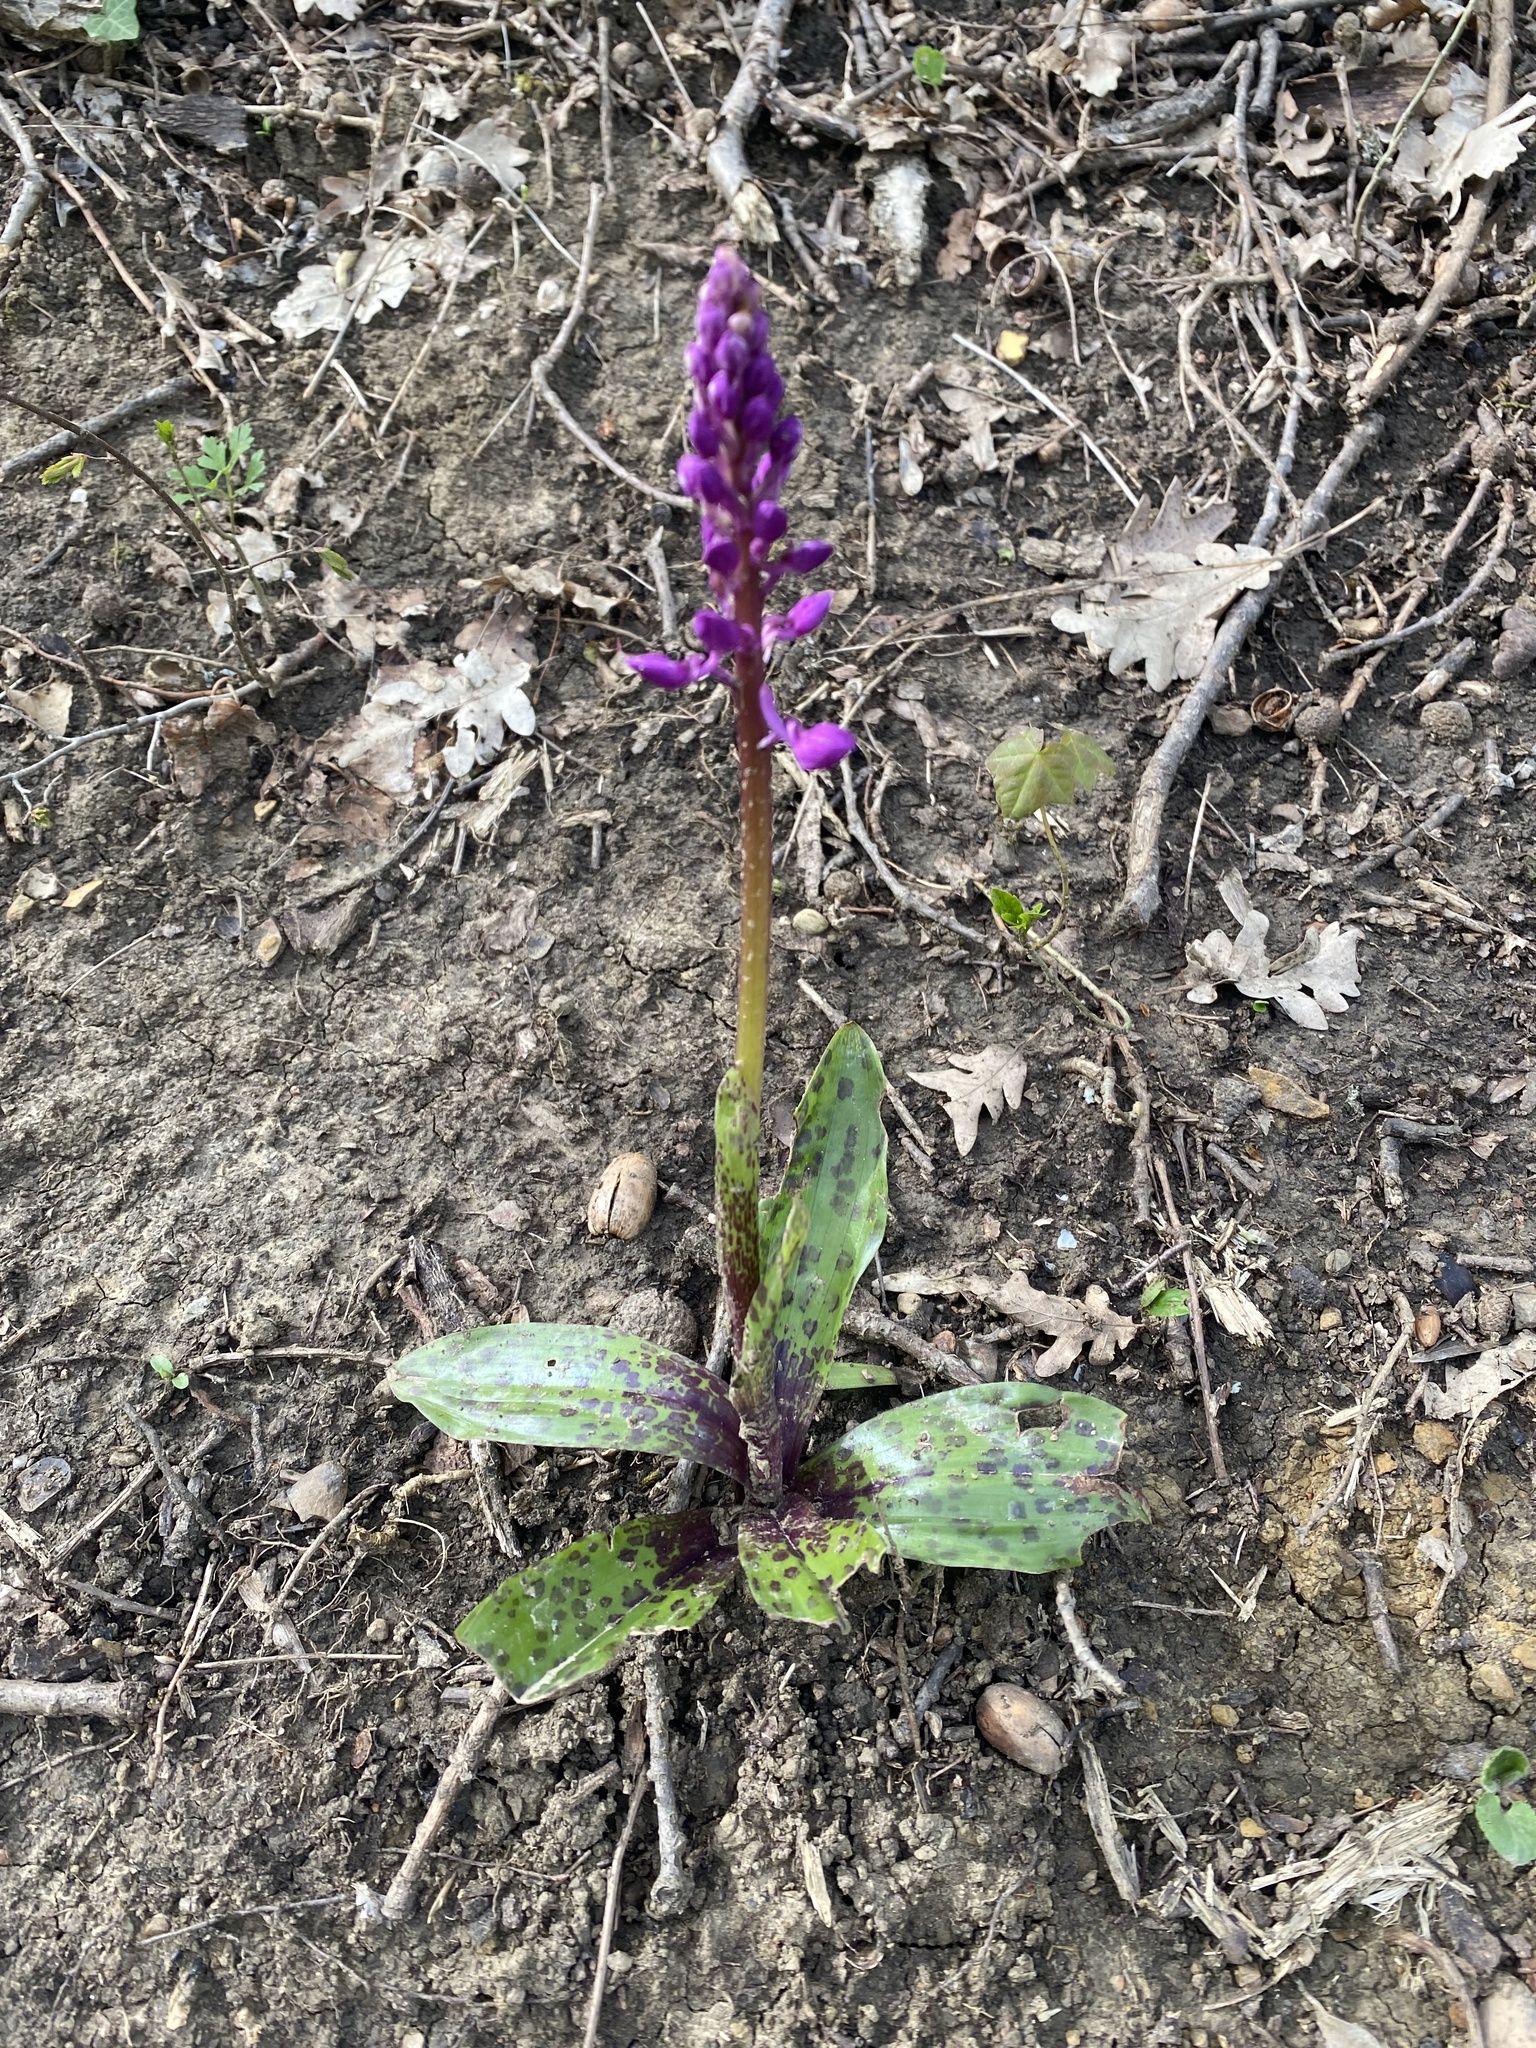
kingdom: Plantae
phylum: Tracheophyta
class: Liliopsida
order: Asparagales
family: Orchidaceae
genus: Orchis
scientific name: Orchis mascula
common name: Early-purple orchid
